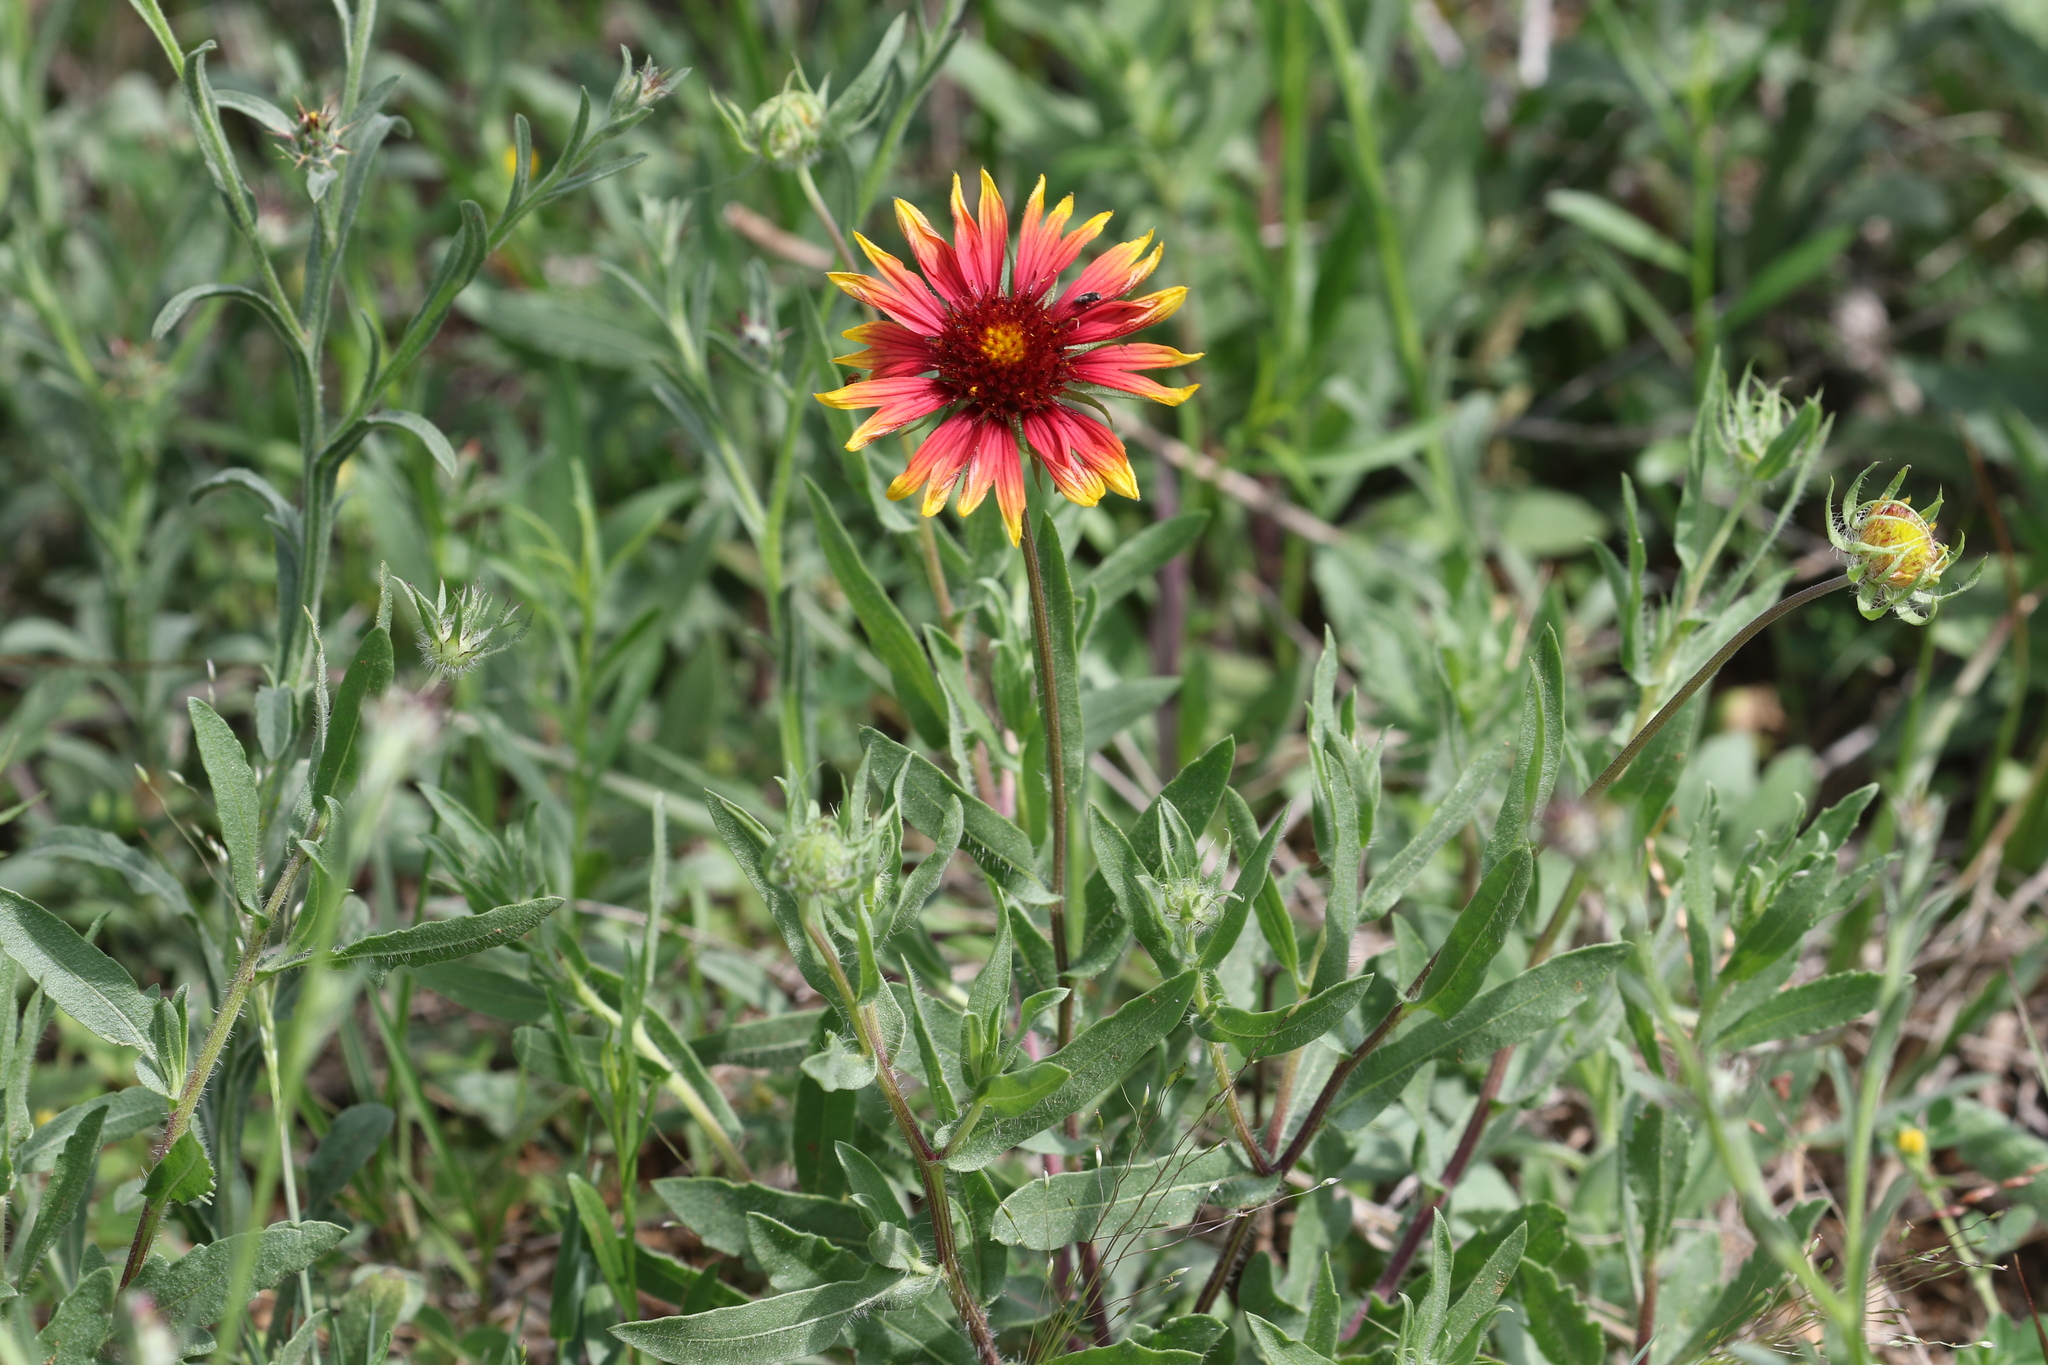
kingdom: Plantae
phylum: Tracheophyta
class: Magnoliopsida
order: Asterales
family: Asteraceae
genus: Gaillardia
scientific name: Gaillardia pulchella
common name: Firewheel
